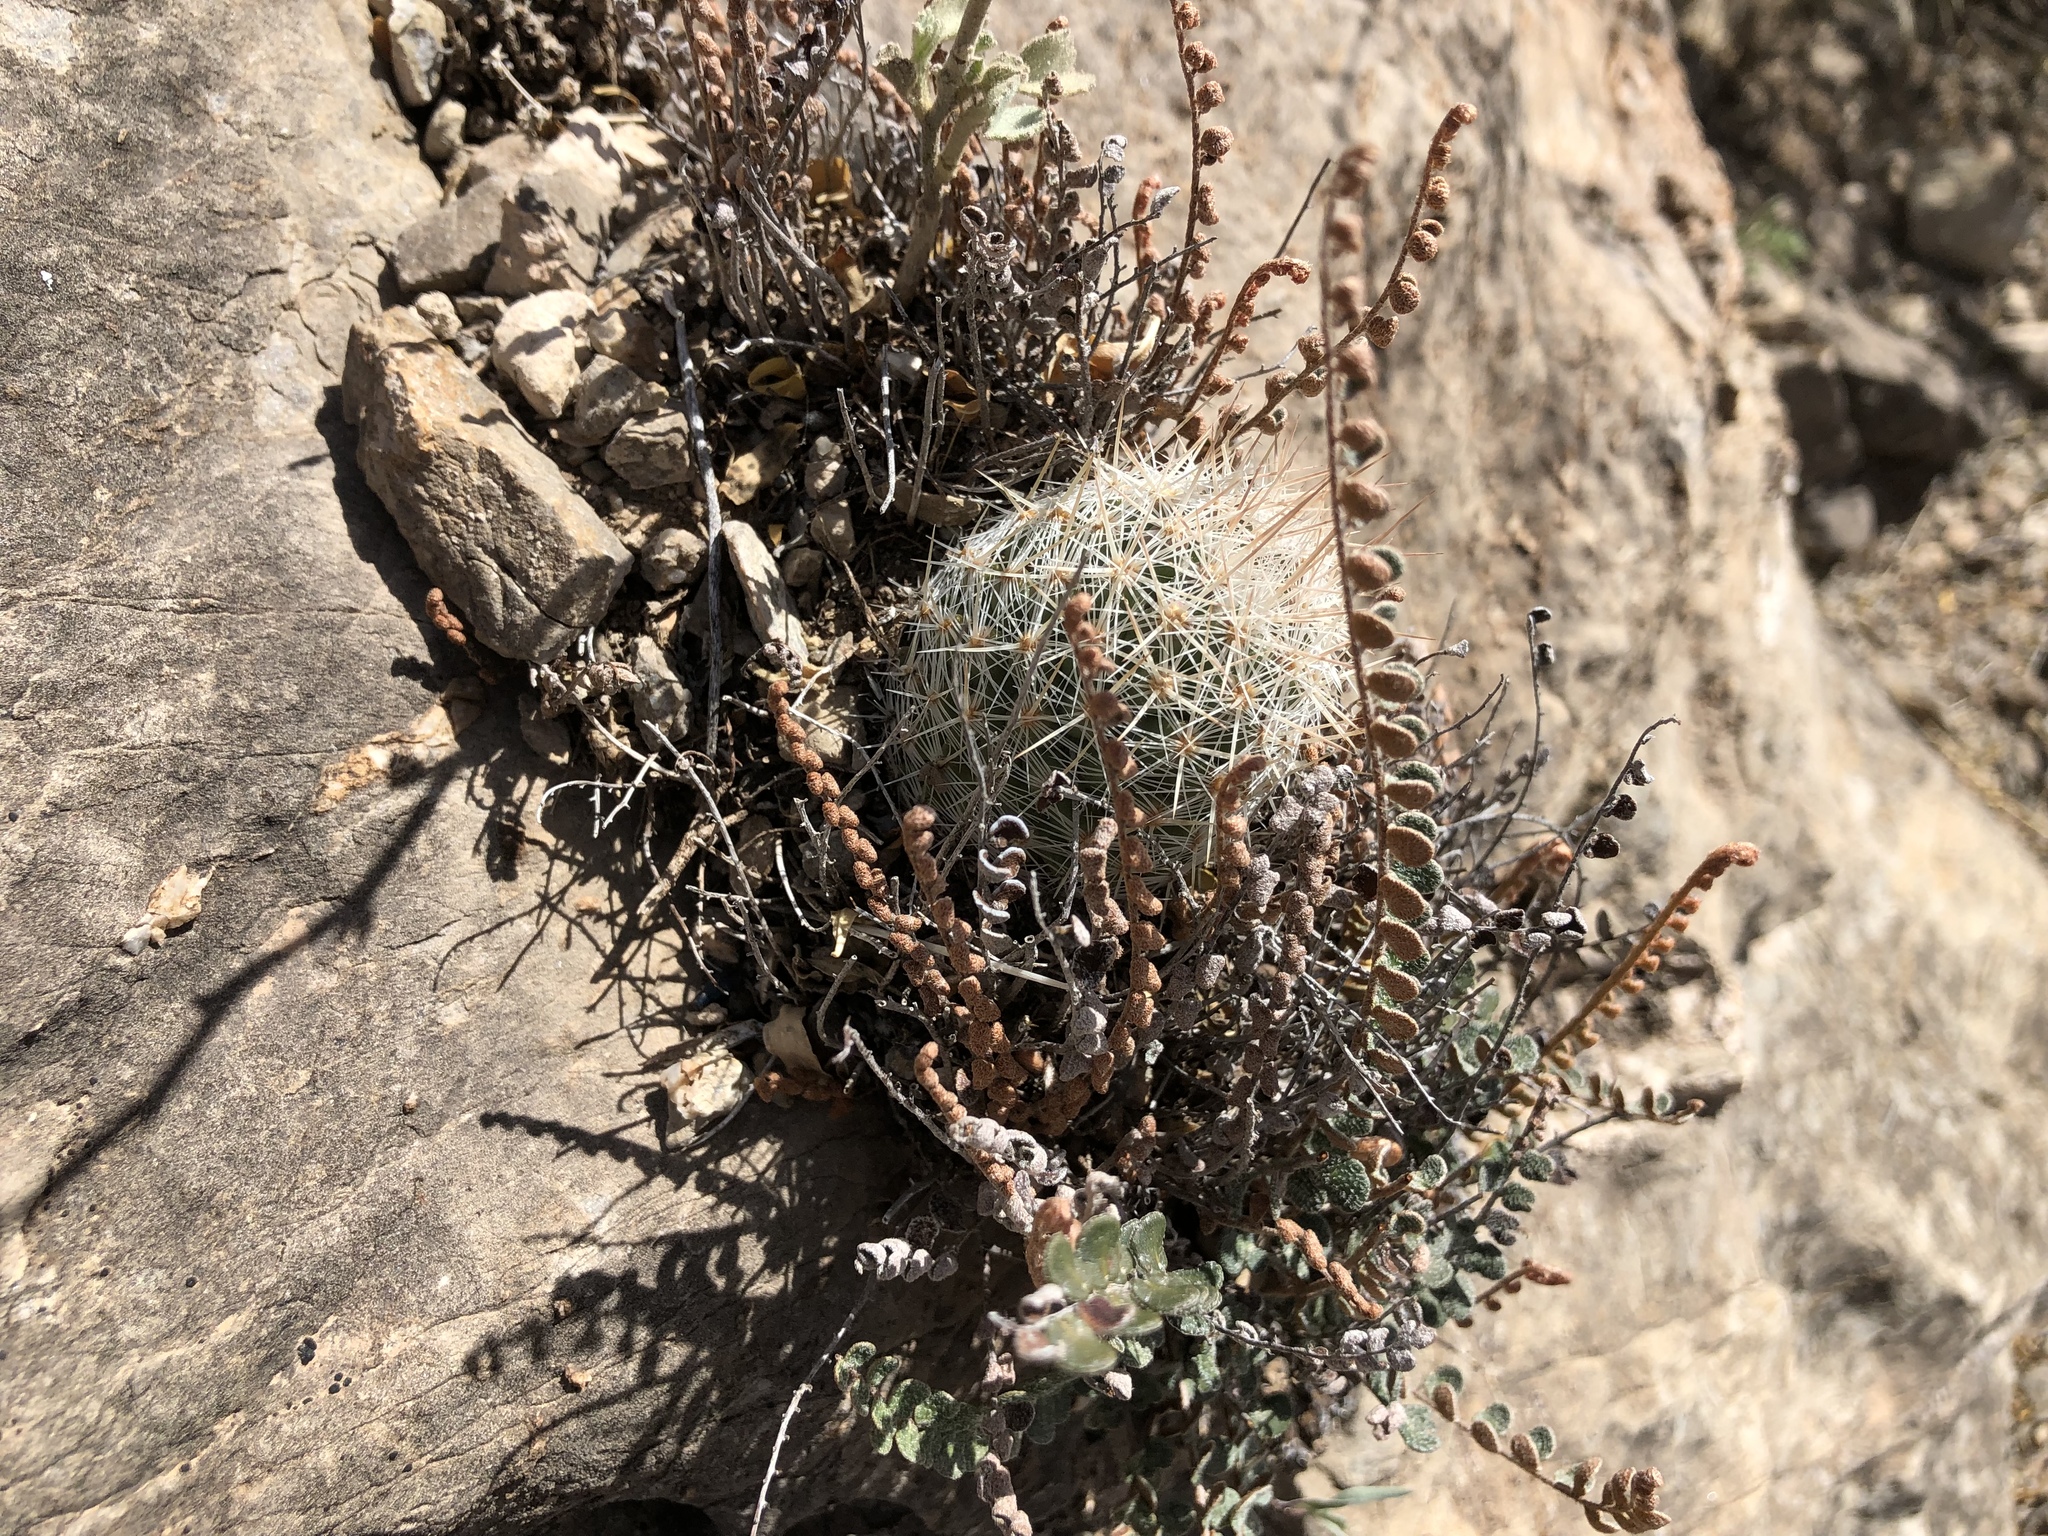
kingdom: Plantae
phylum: Tracheophyta
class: Magnoliopsida
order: Caryophyllales
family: Cactaceae
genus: Pelecyphora
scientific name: Pelecyphora tuberculosa
